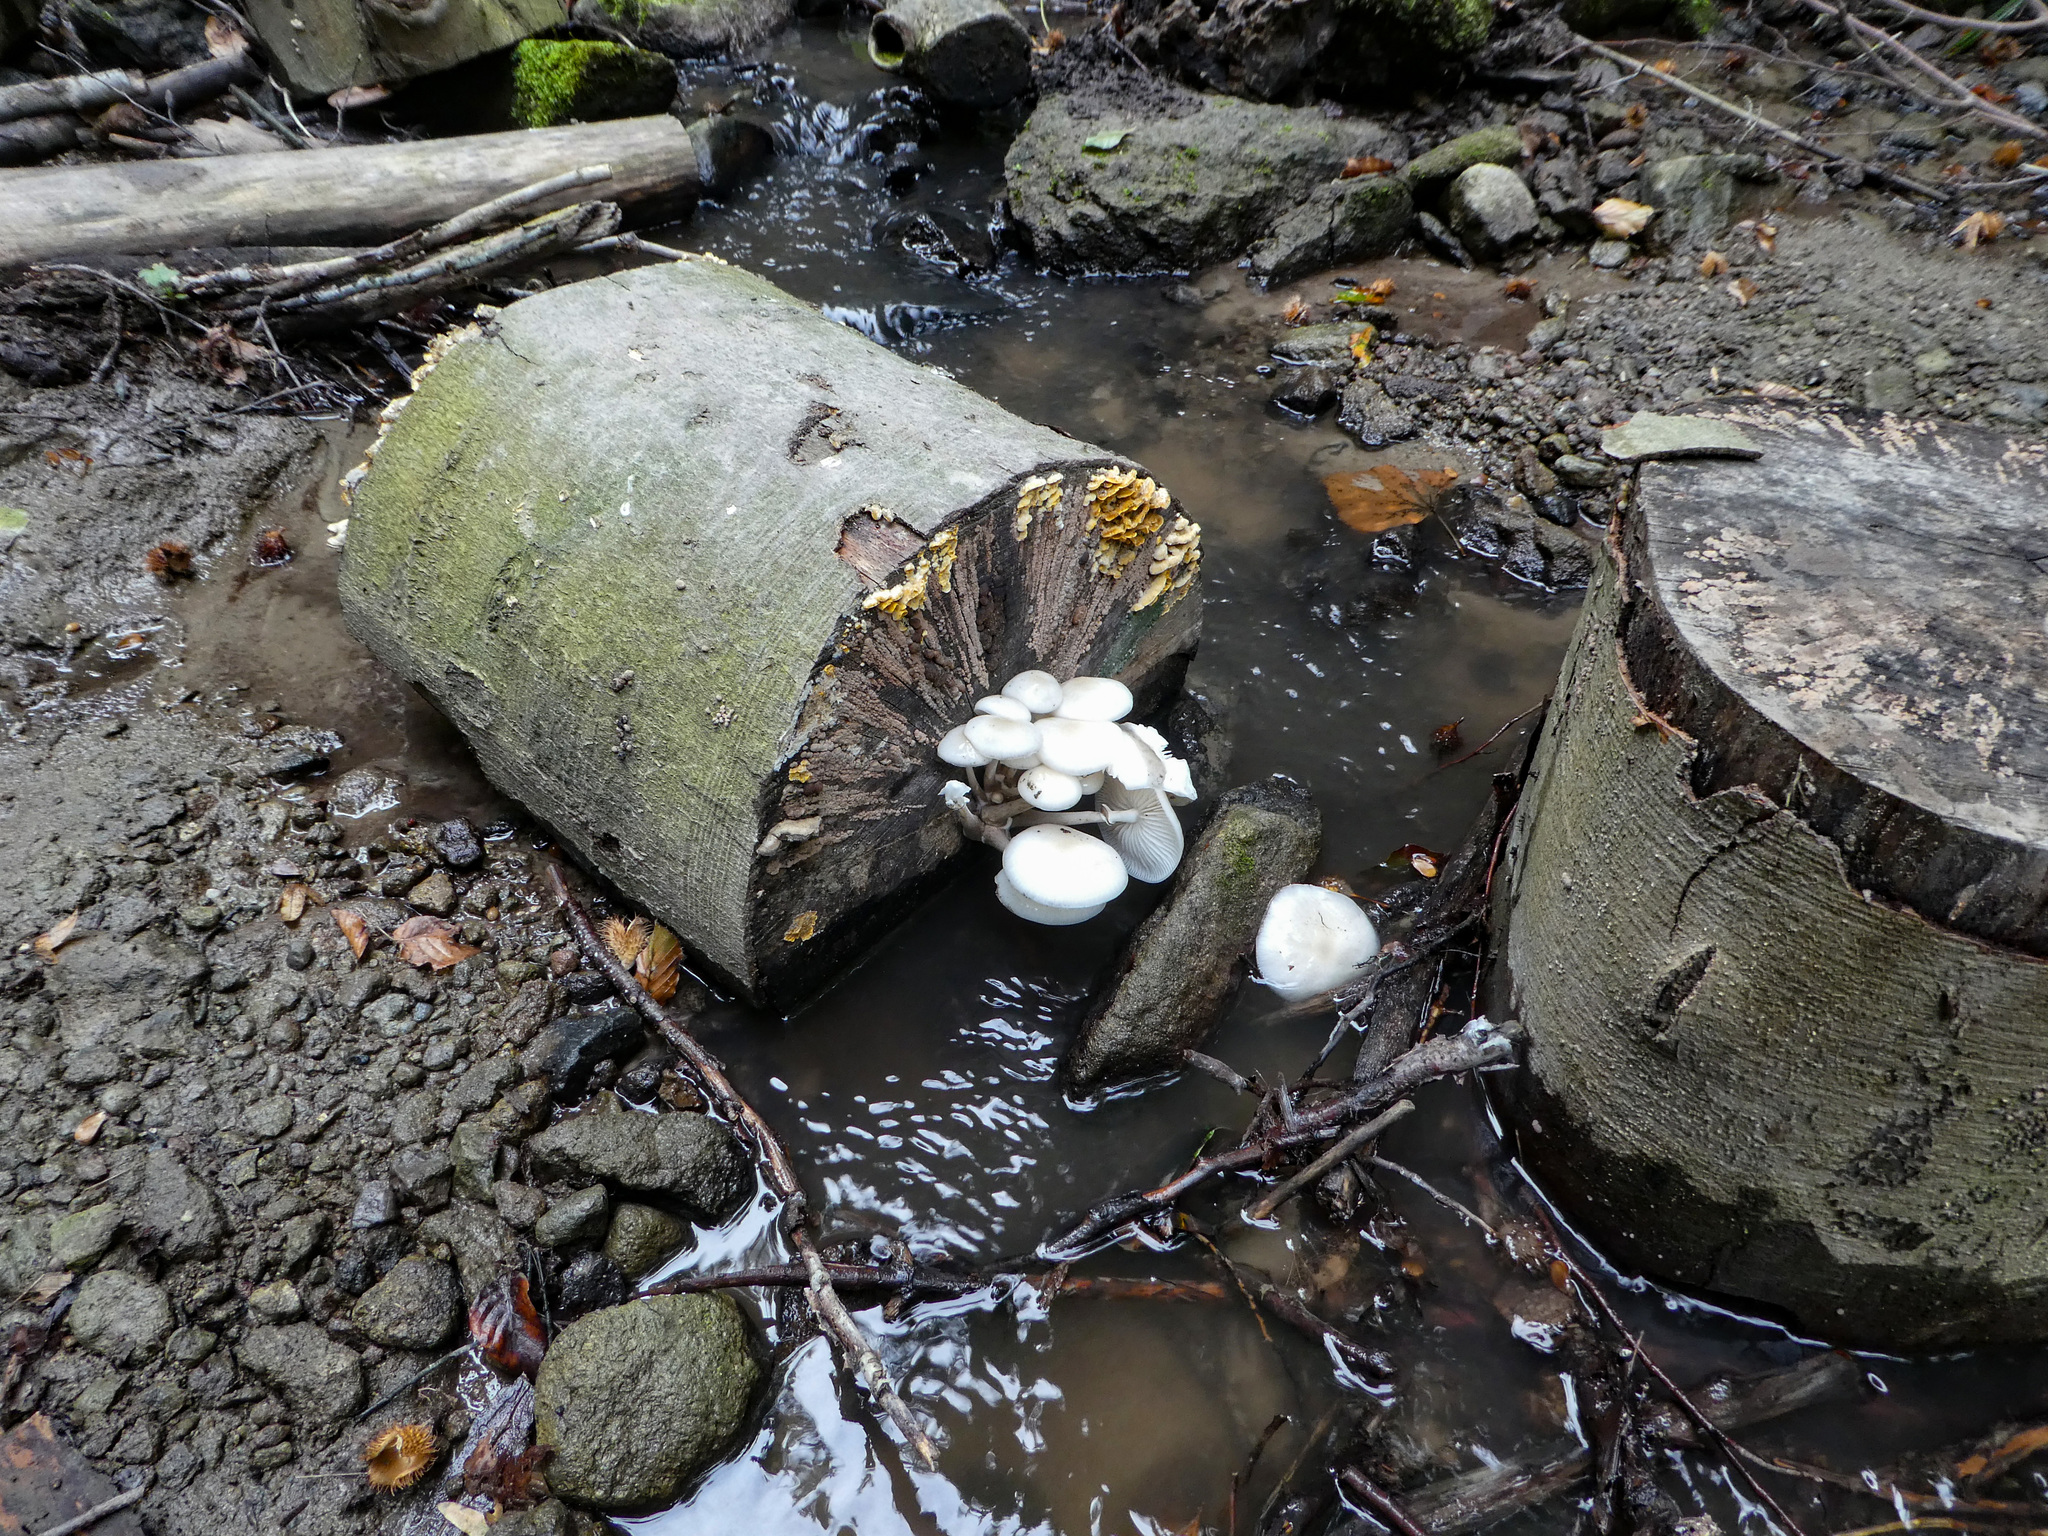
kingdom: Fungi
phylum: Basidiomycota
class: Agaricomycetes
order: Agaricales
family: Physalacriaceae
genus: Mucidula
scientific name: Mucidula mucida
